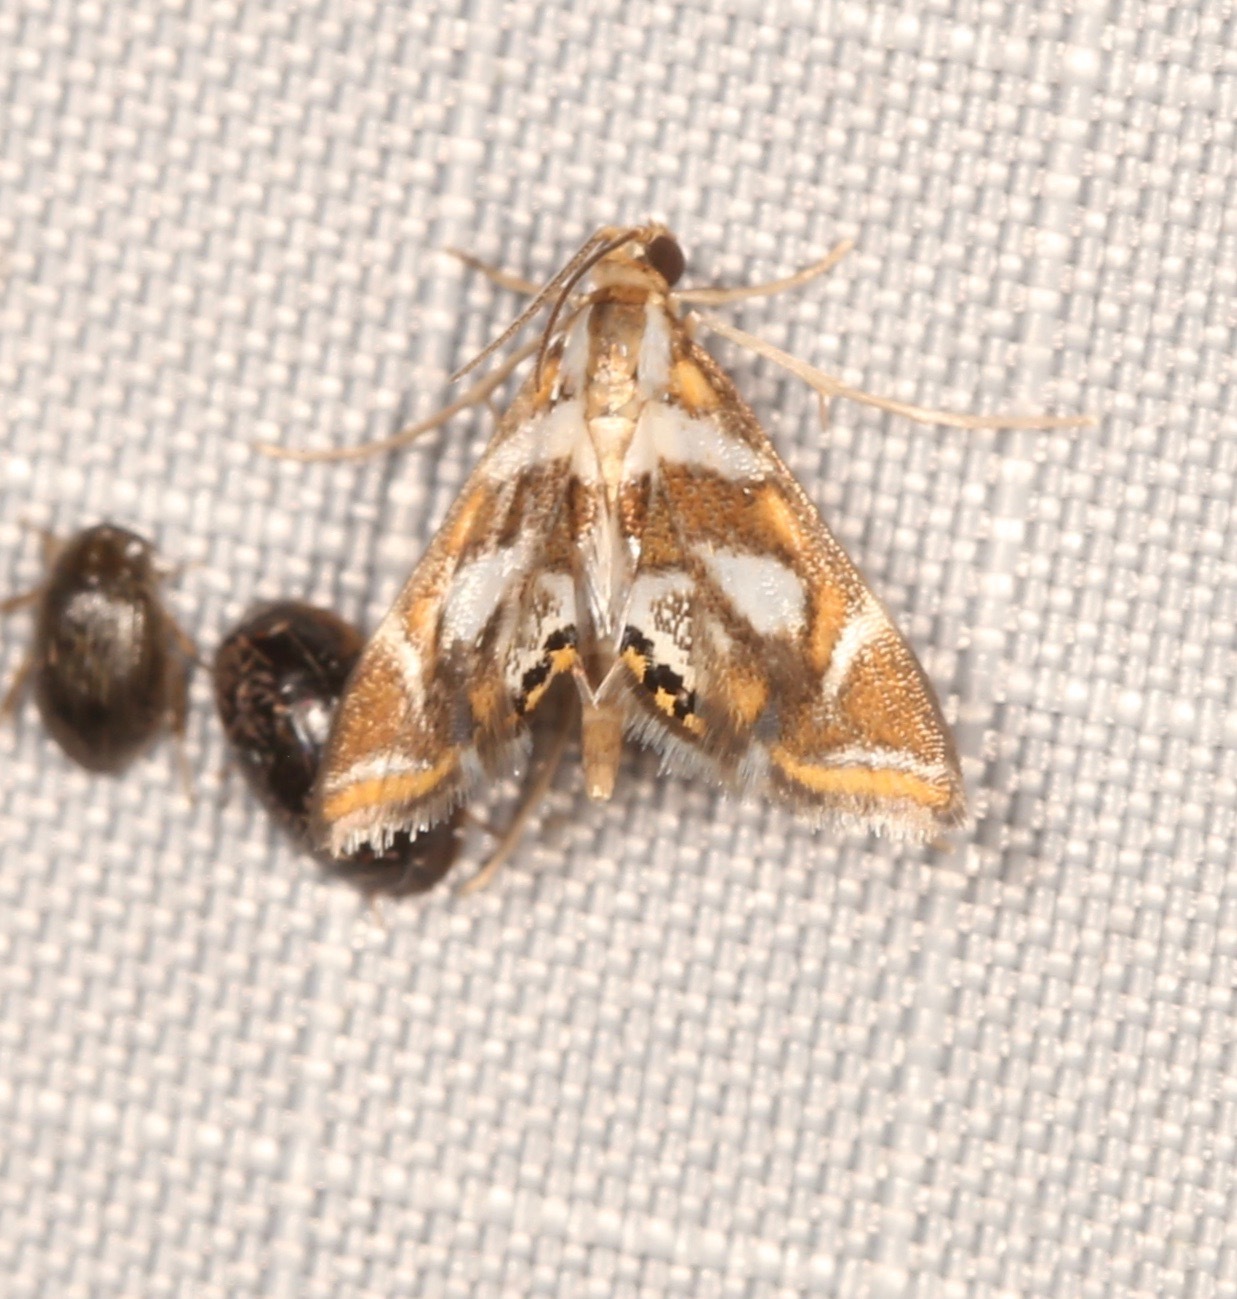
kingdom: Animalia
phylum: Arthropoda
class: Insecta
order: Lepidoptera
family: Crambidae
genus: Chrysendeton
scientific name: Chrysendeton medicinalis
